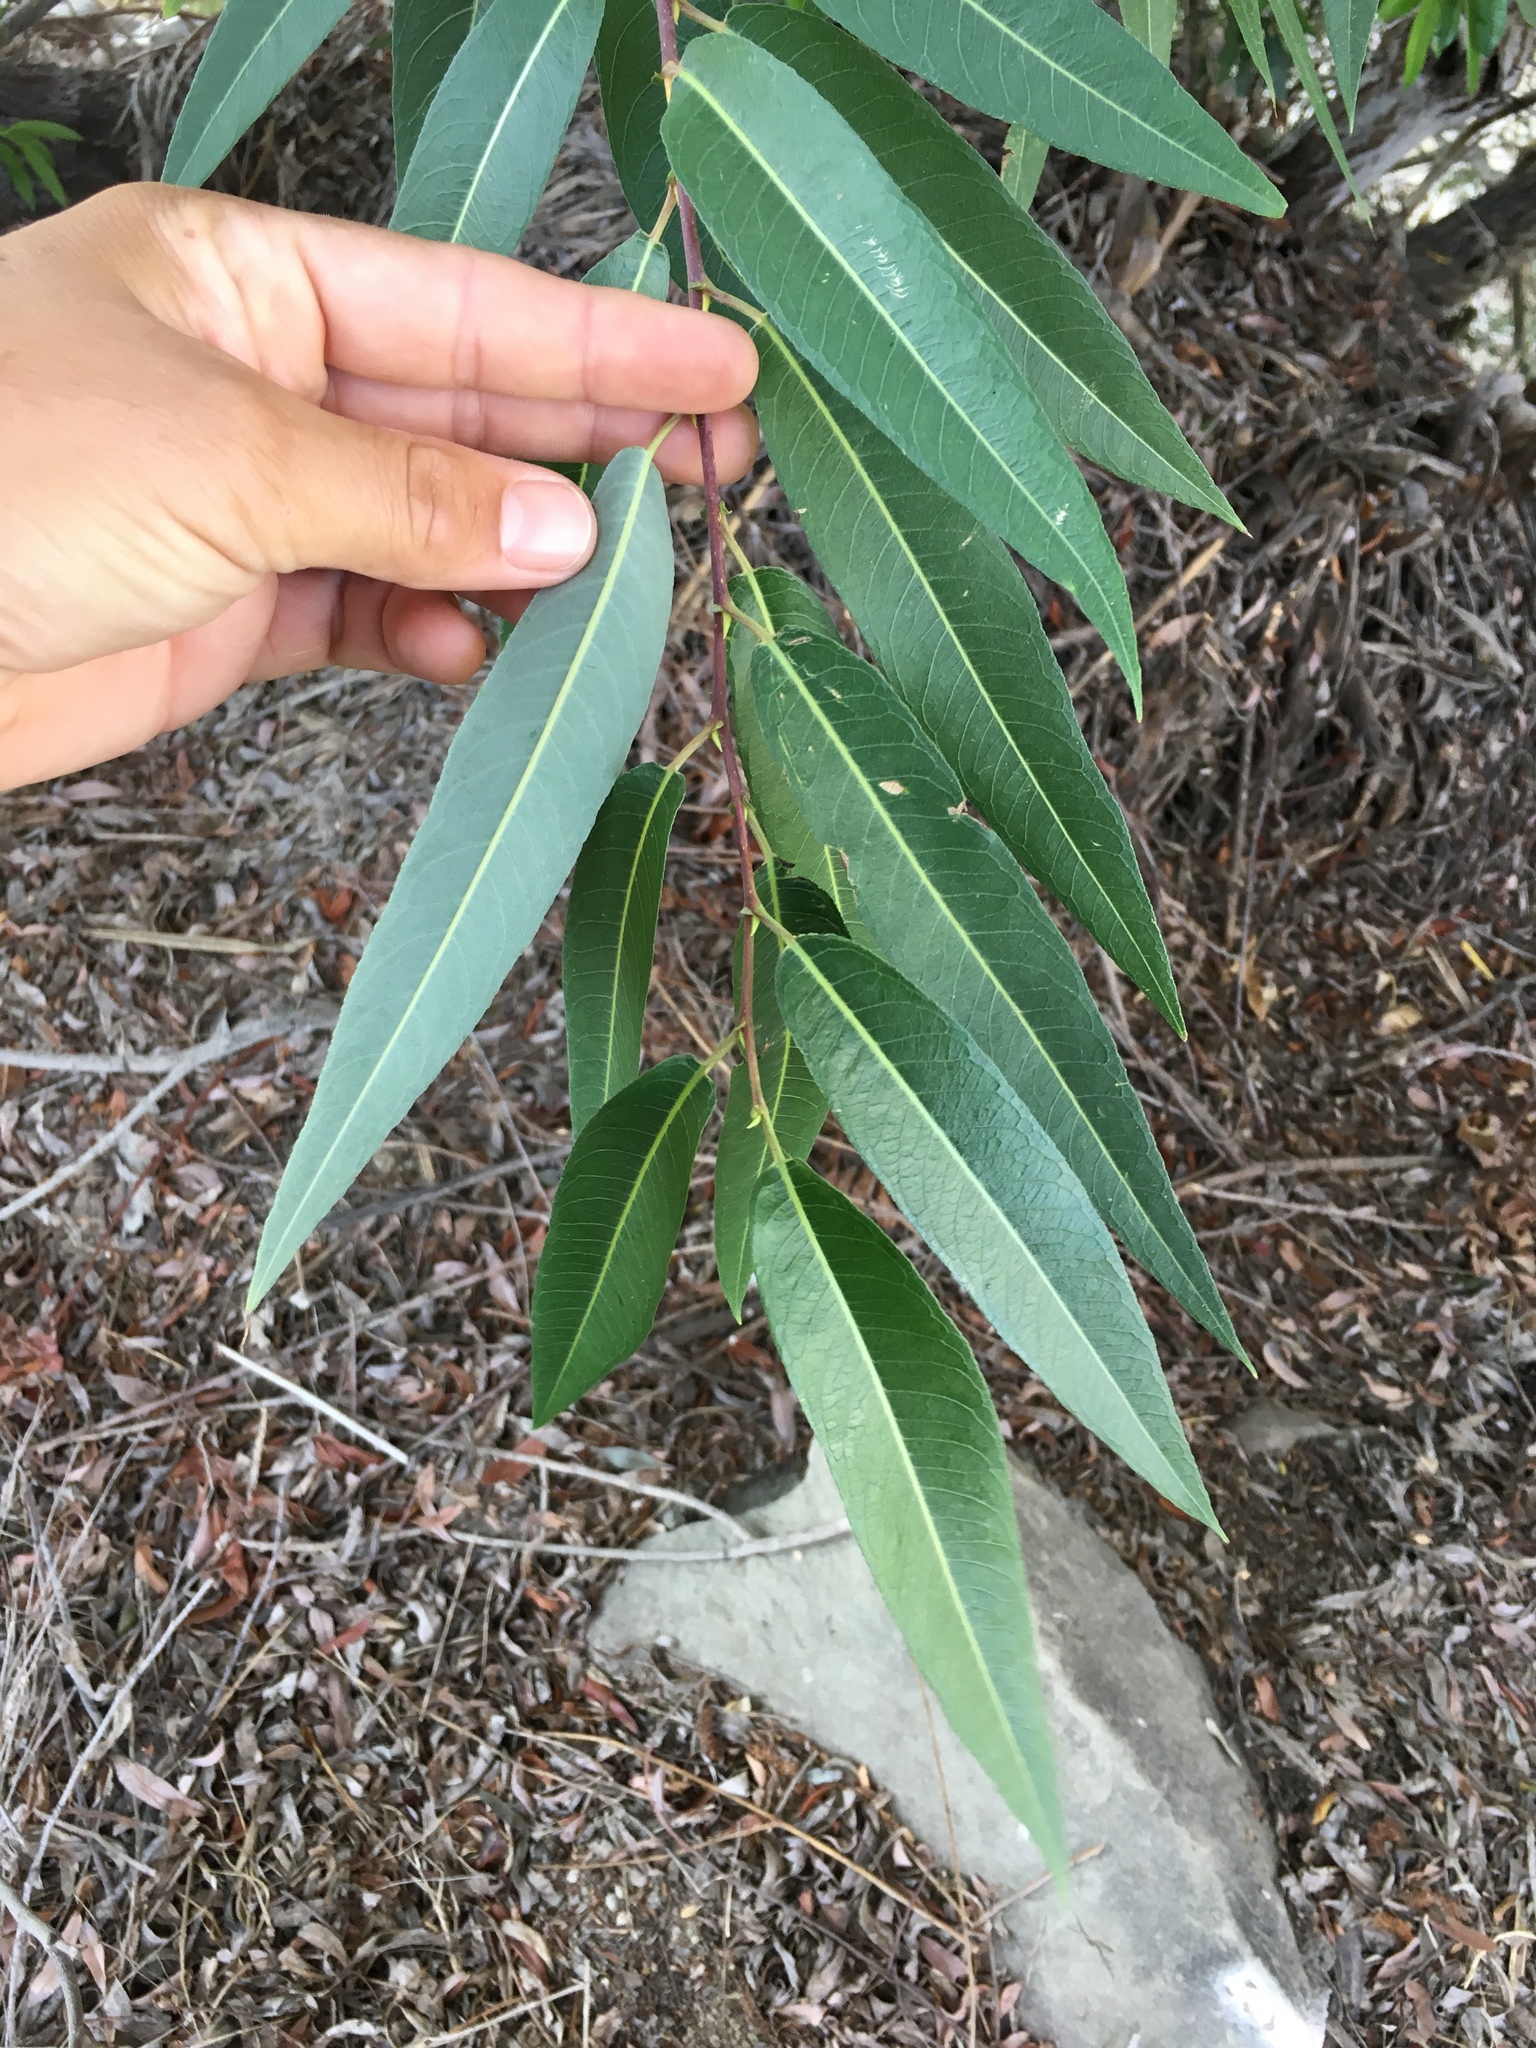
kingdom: Plantae
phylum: Tracheophyta
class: Magnoliopsida
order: Malpighiales
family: Salicaceae
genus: Salix
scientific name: Salix laevigata
